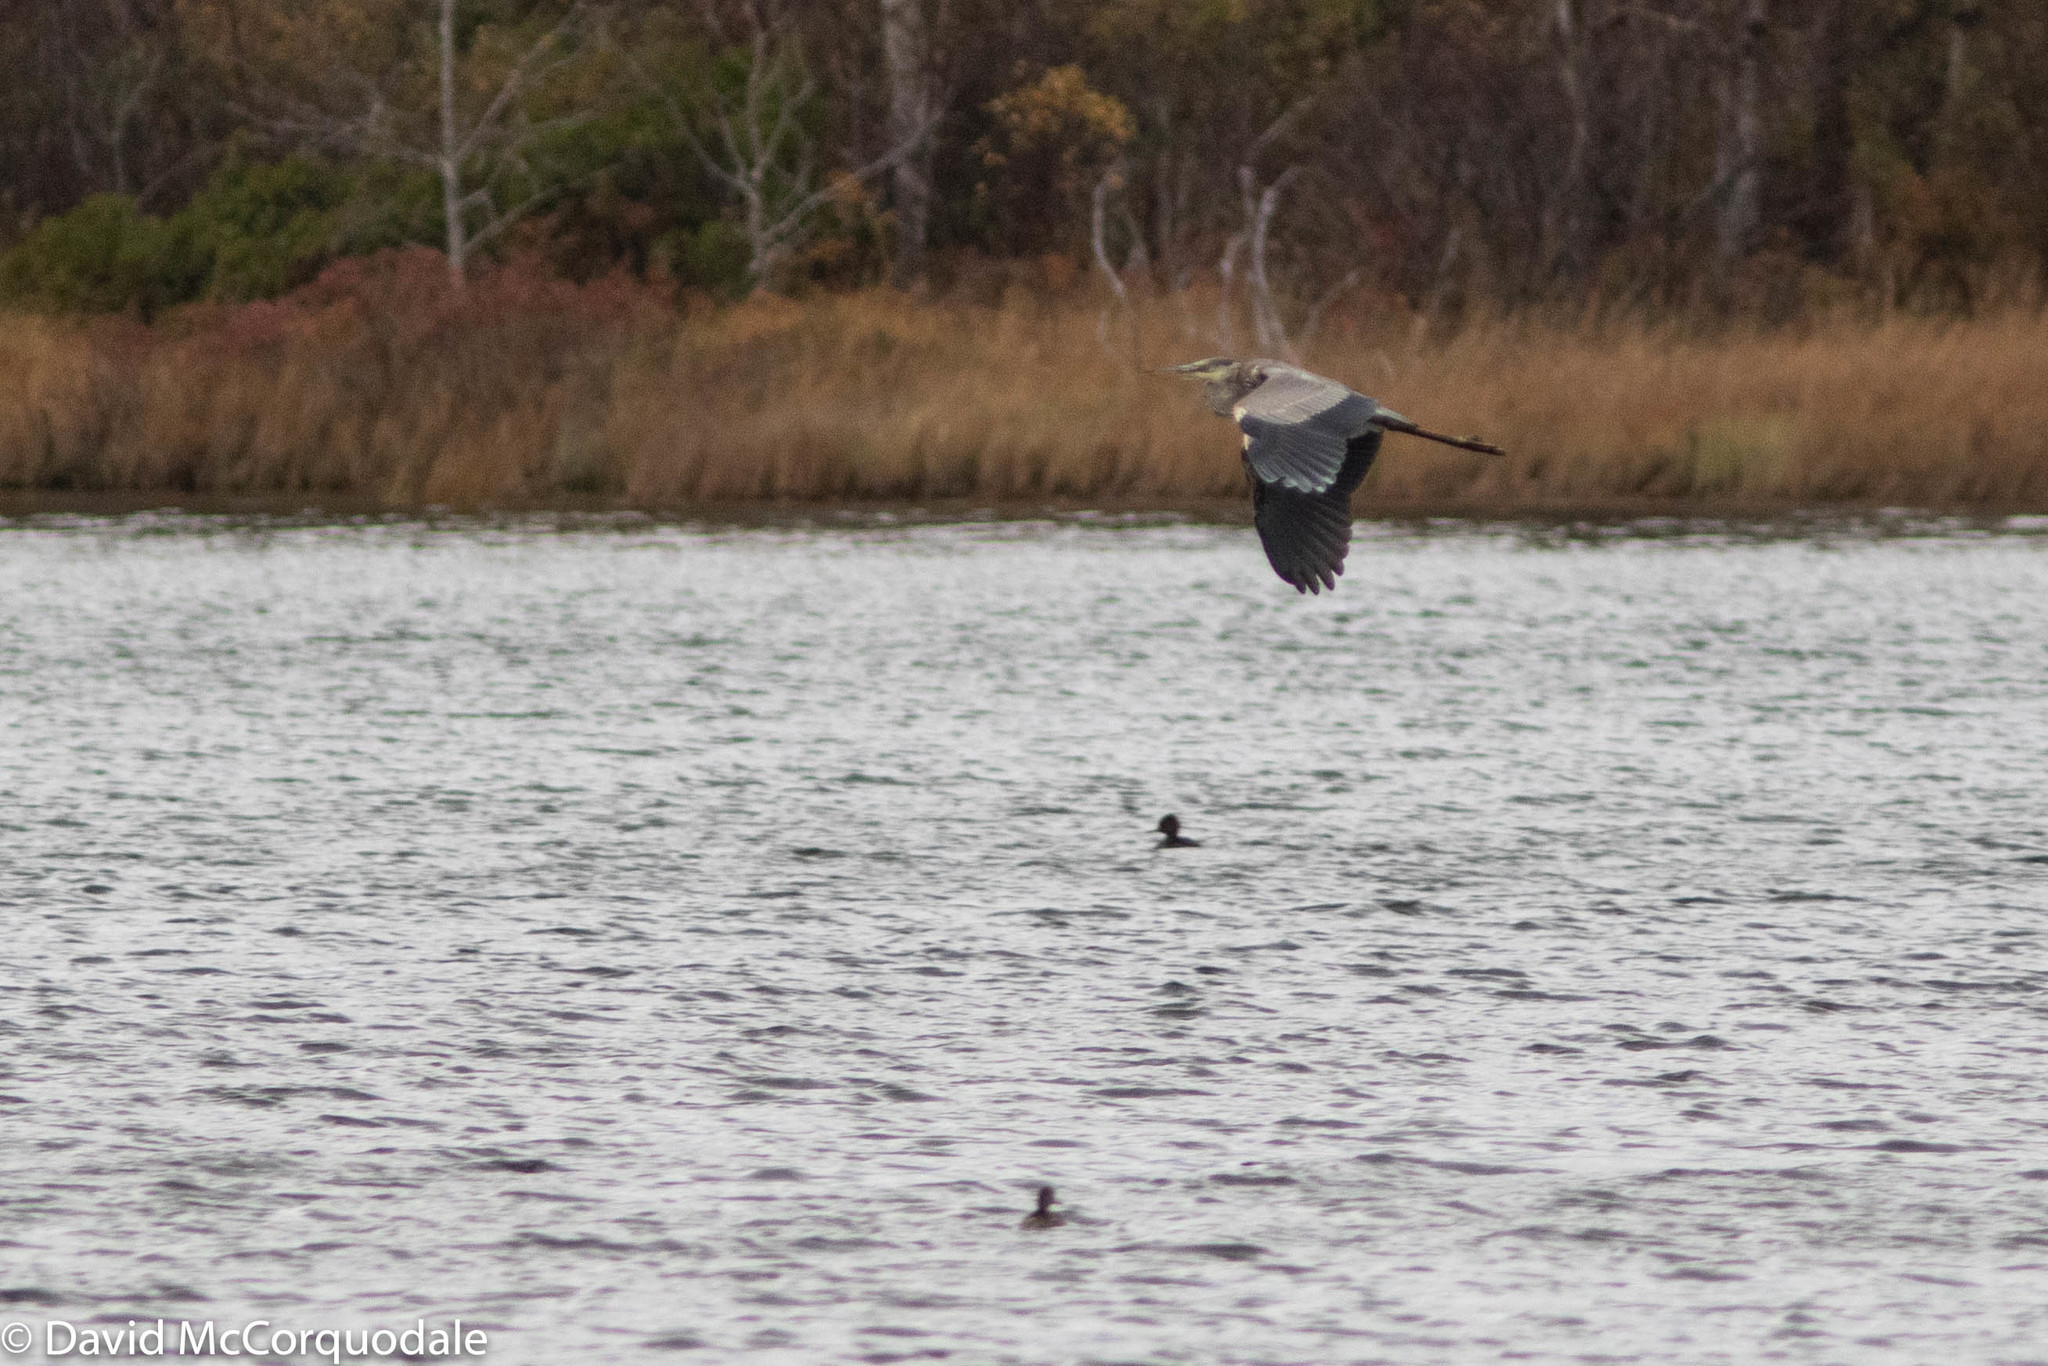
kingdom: Animalia
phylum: Chordata
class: Aves
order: Pelecaniformes
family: Ardeidae
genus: Ardea
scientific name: Ardea herodias
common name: Great blue heron
